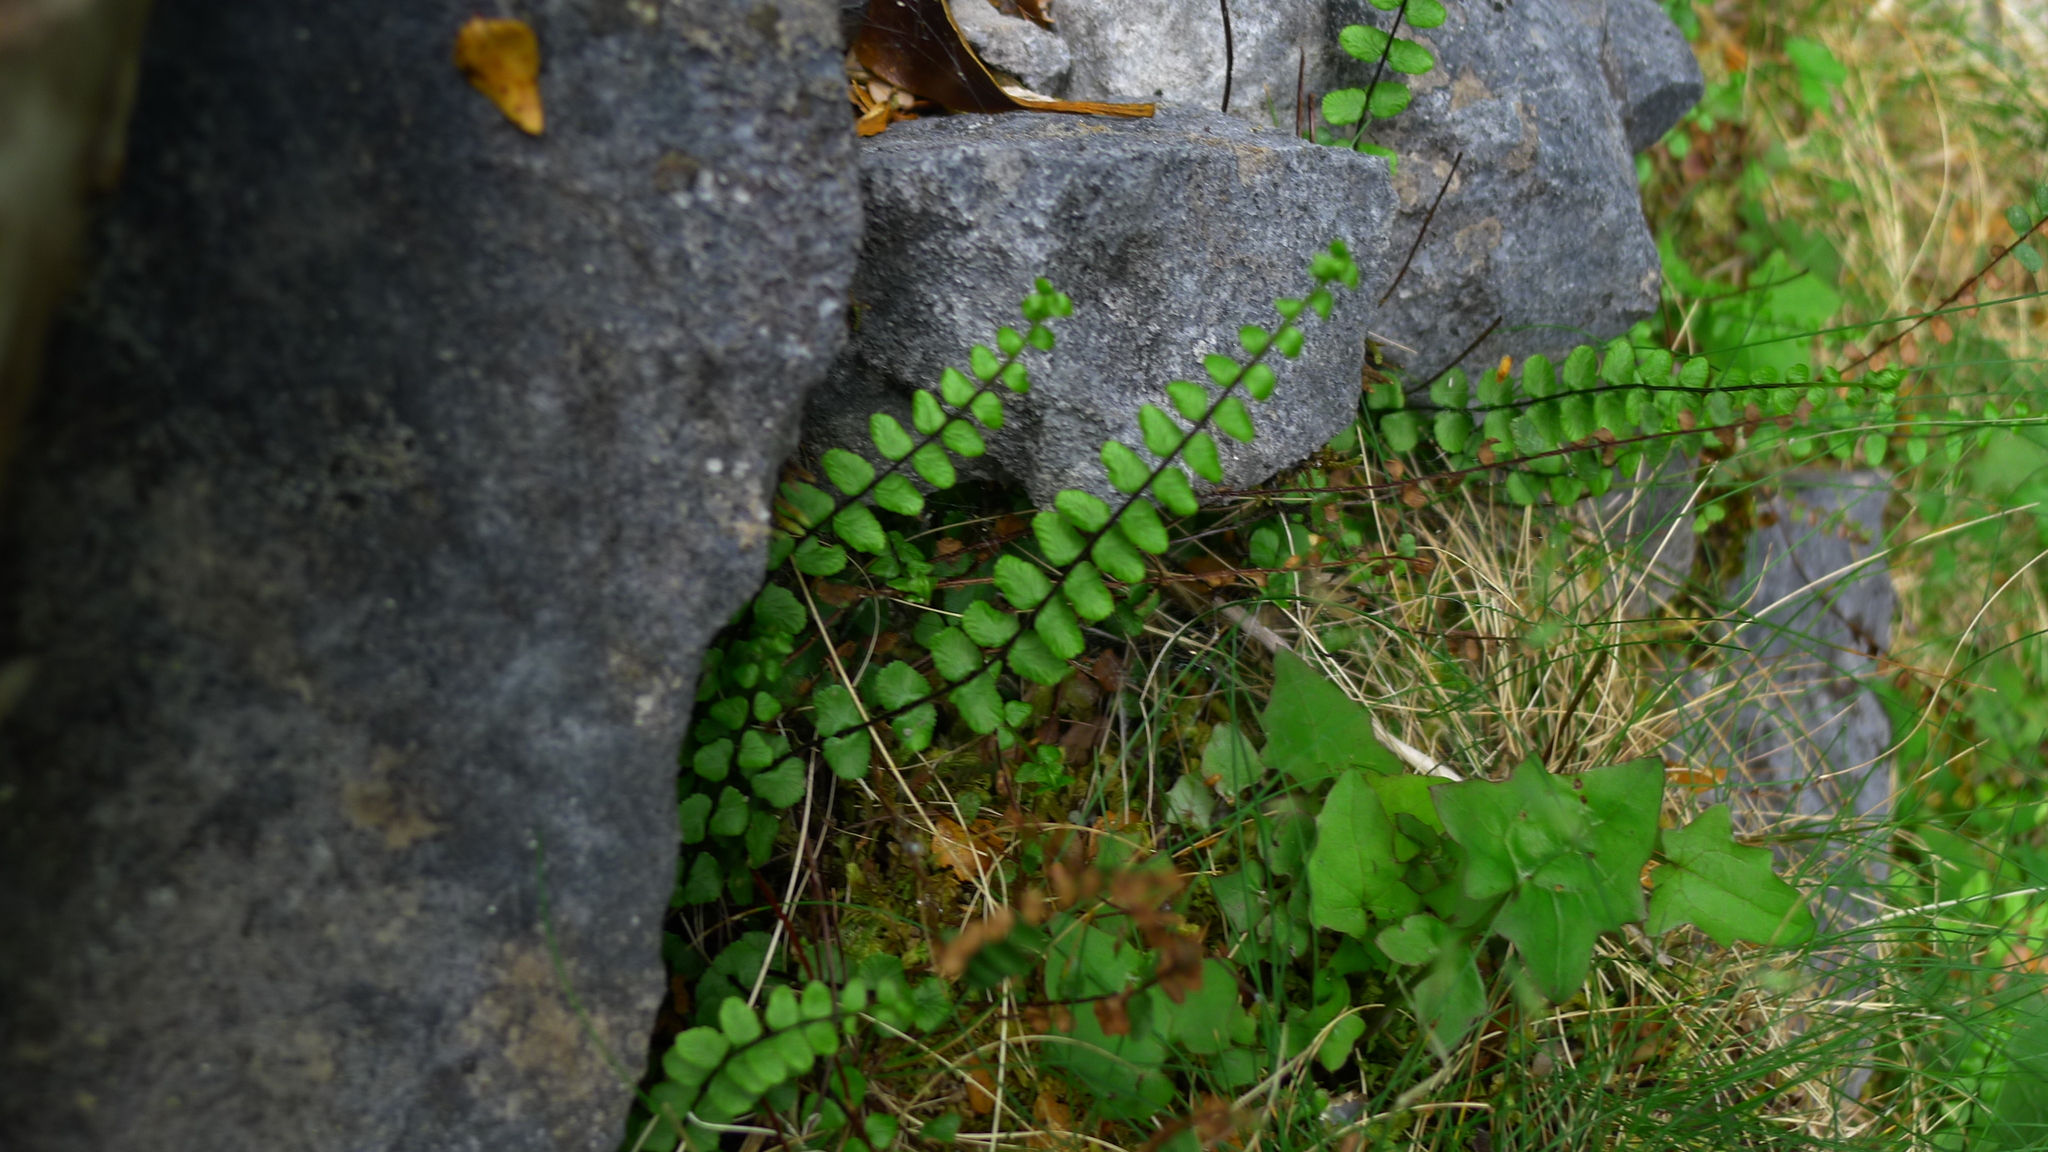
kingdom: Plantae
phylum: Tracheophyta
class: Polypodiopsida
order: Polypodiales
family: Aspleniaceae
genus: Asplenium
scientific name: Asplenium trichomanes
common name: Maidenhair spleenwort
